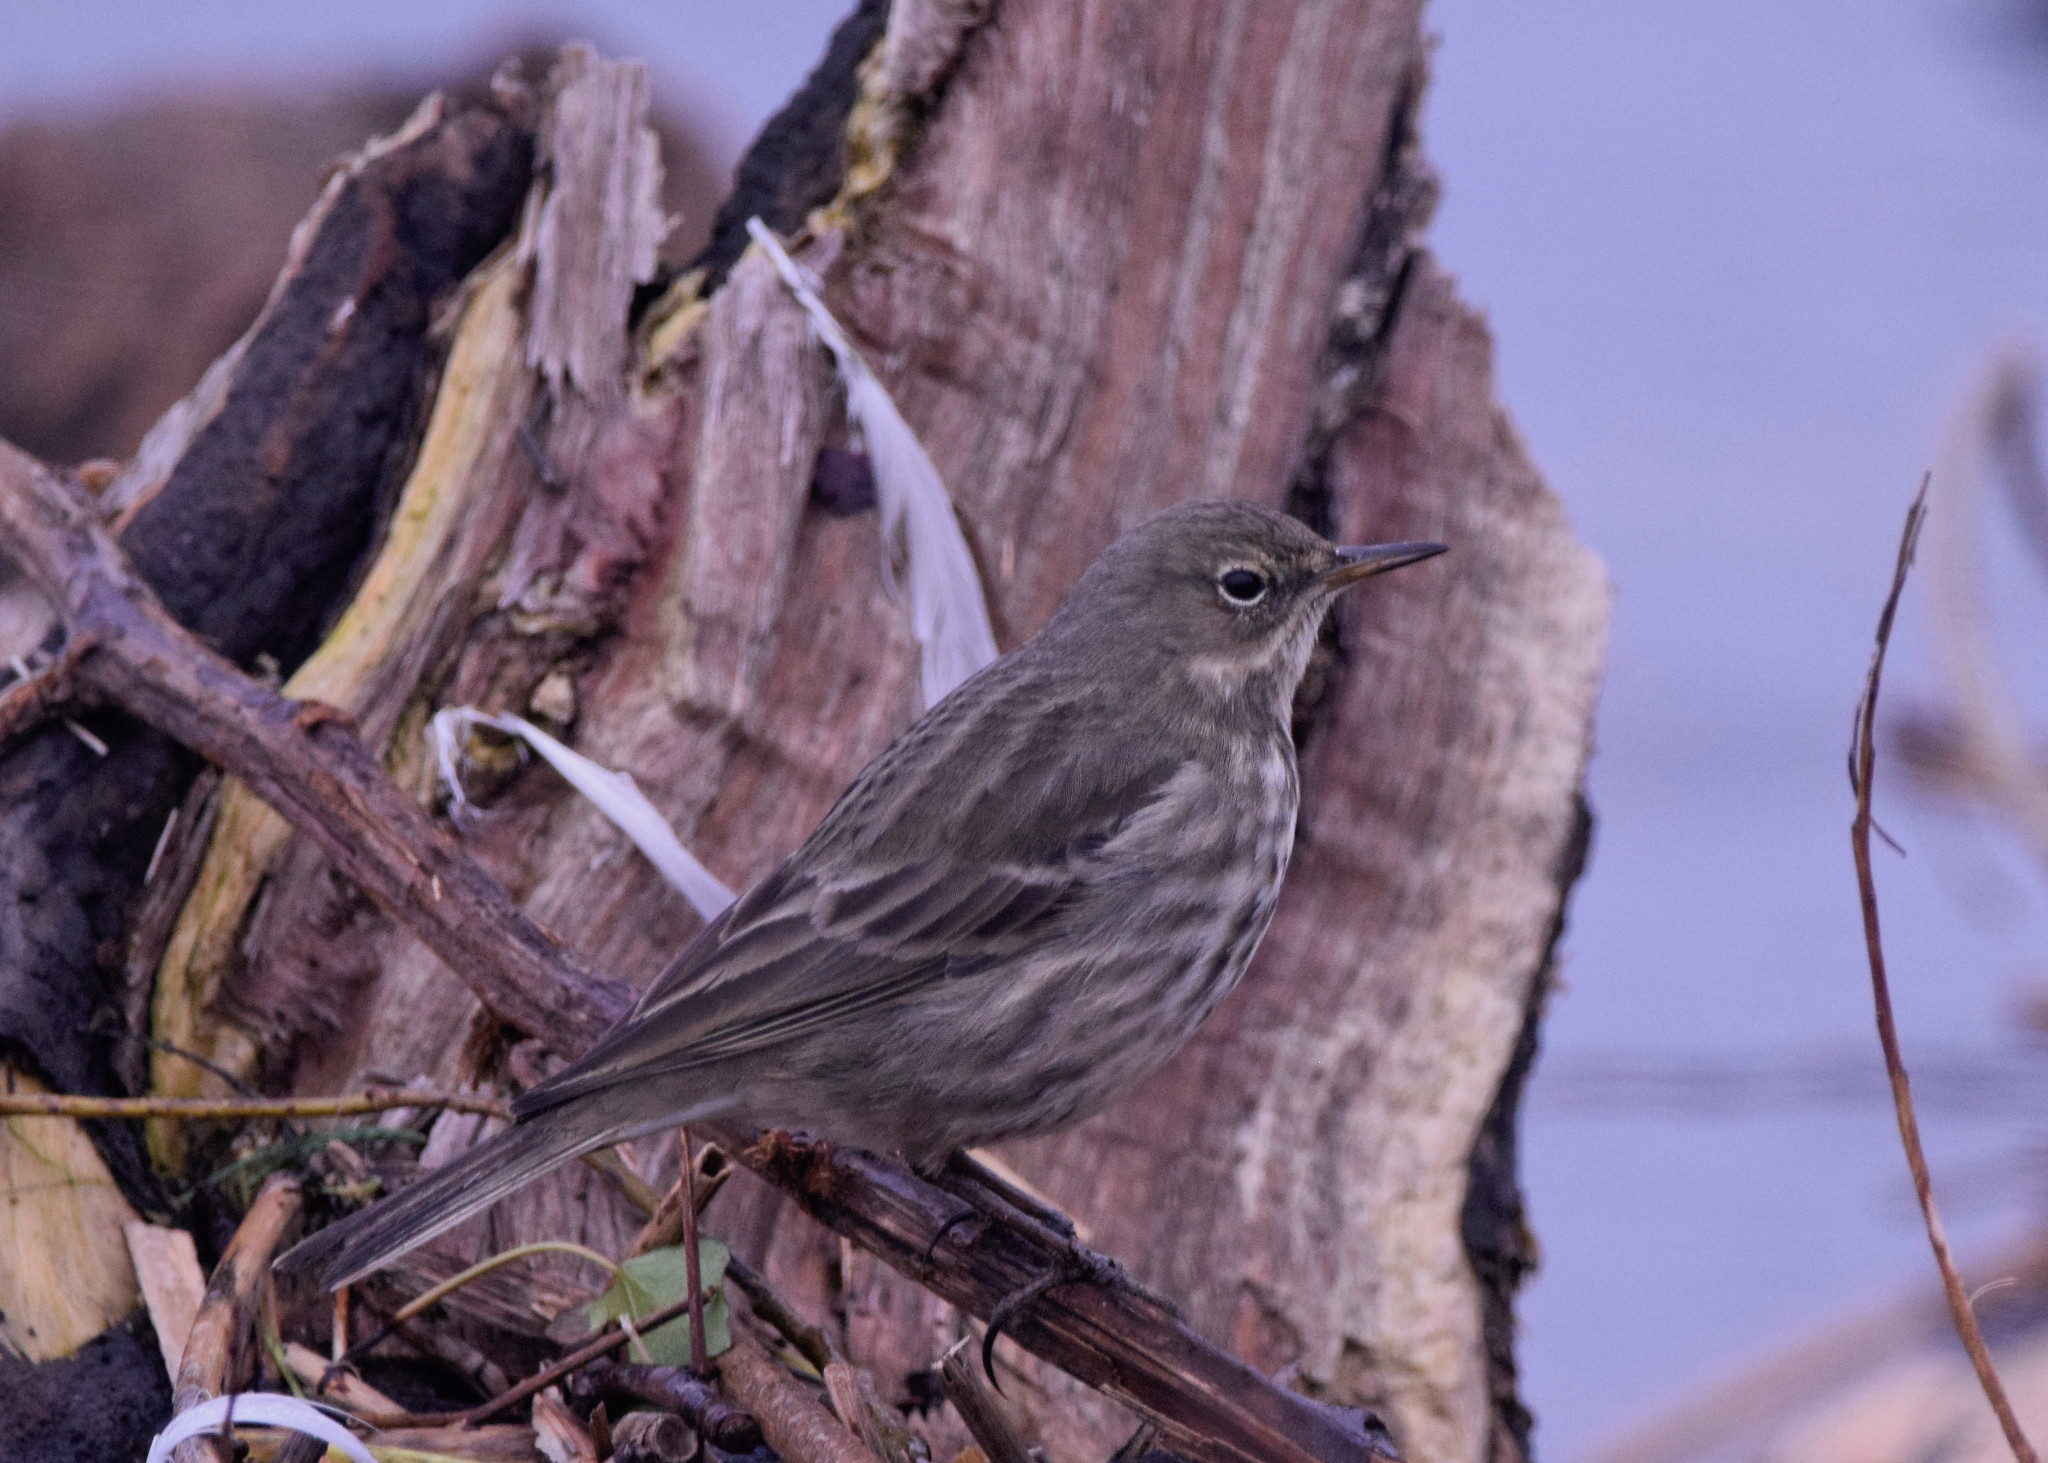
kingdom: Animalia
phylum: Chordata
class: Aves
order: Passeriformes
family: Motacillidae
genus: Anthus
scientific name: Anthus petrosus
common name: Eurasian rock pipit
